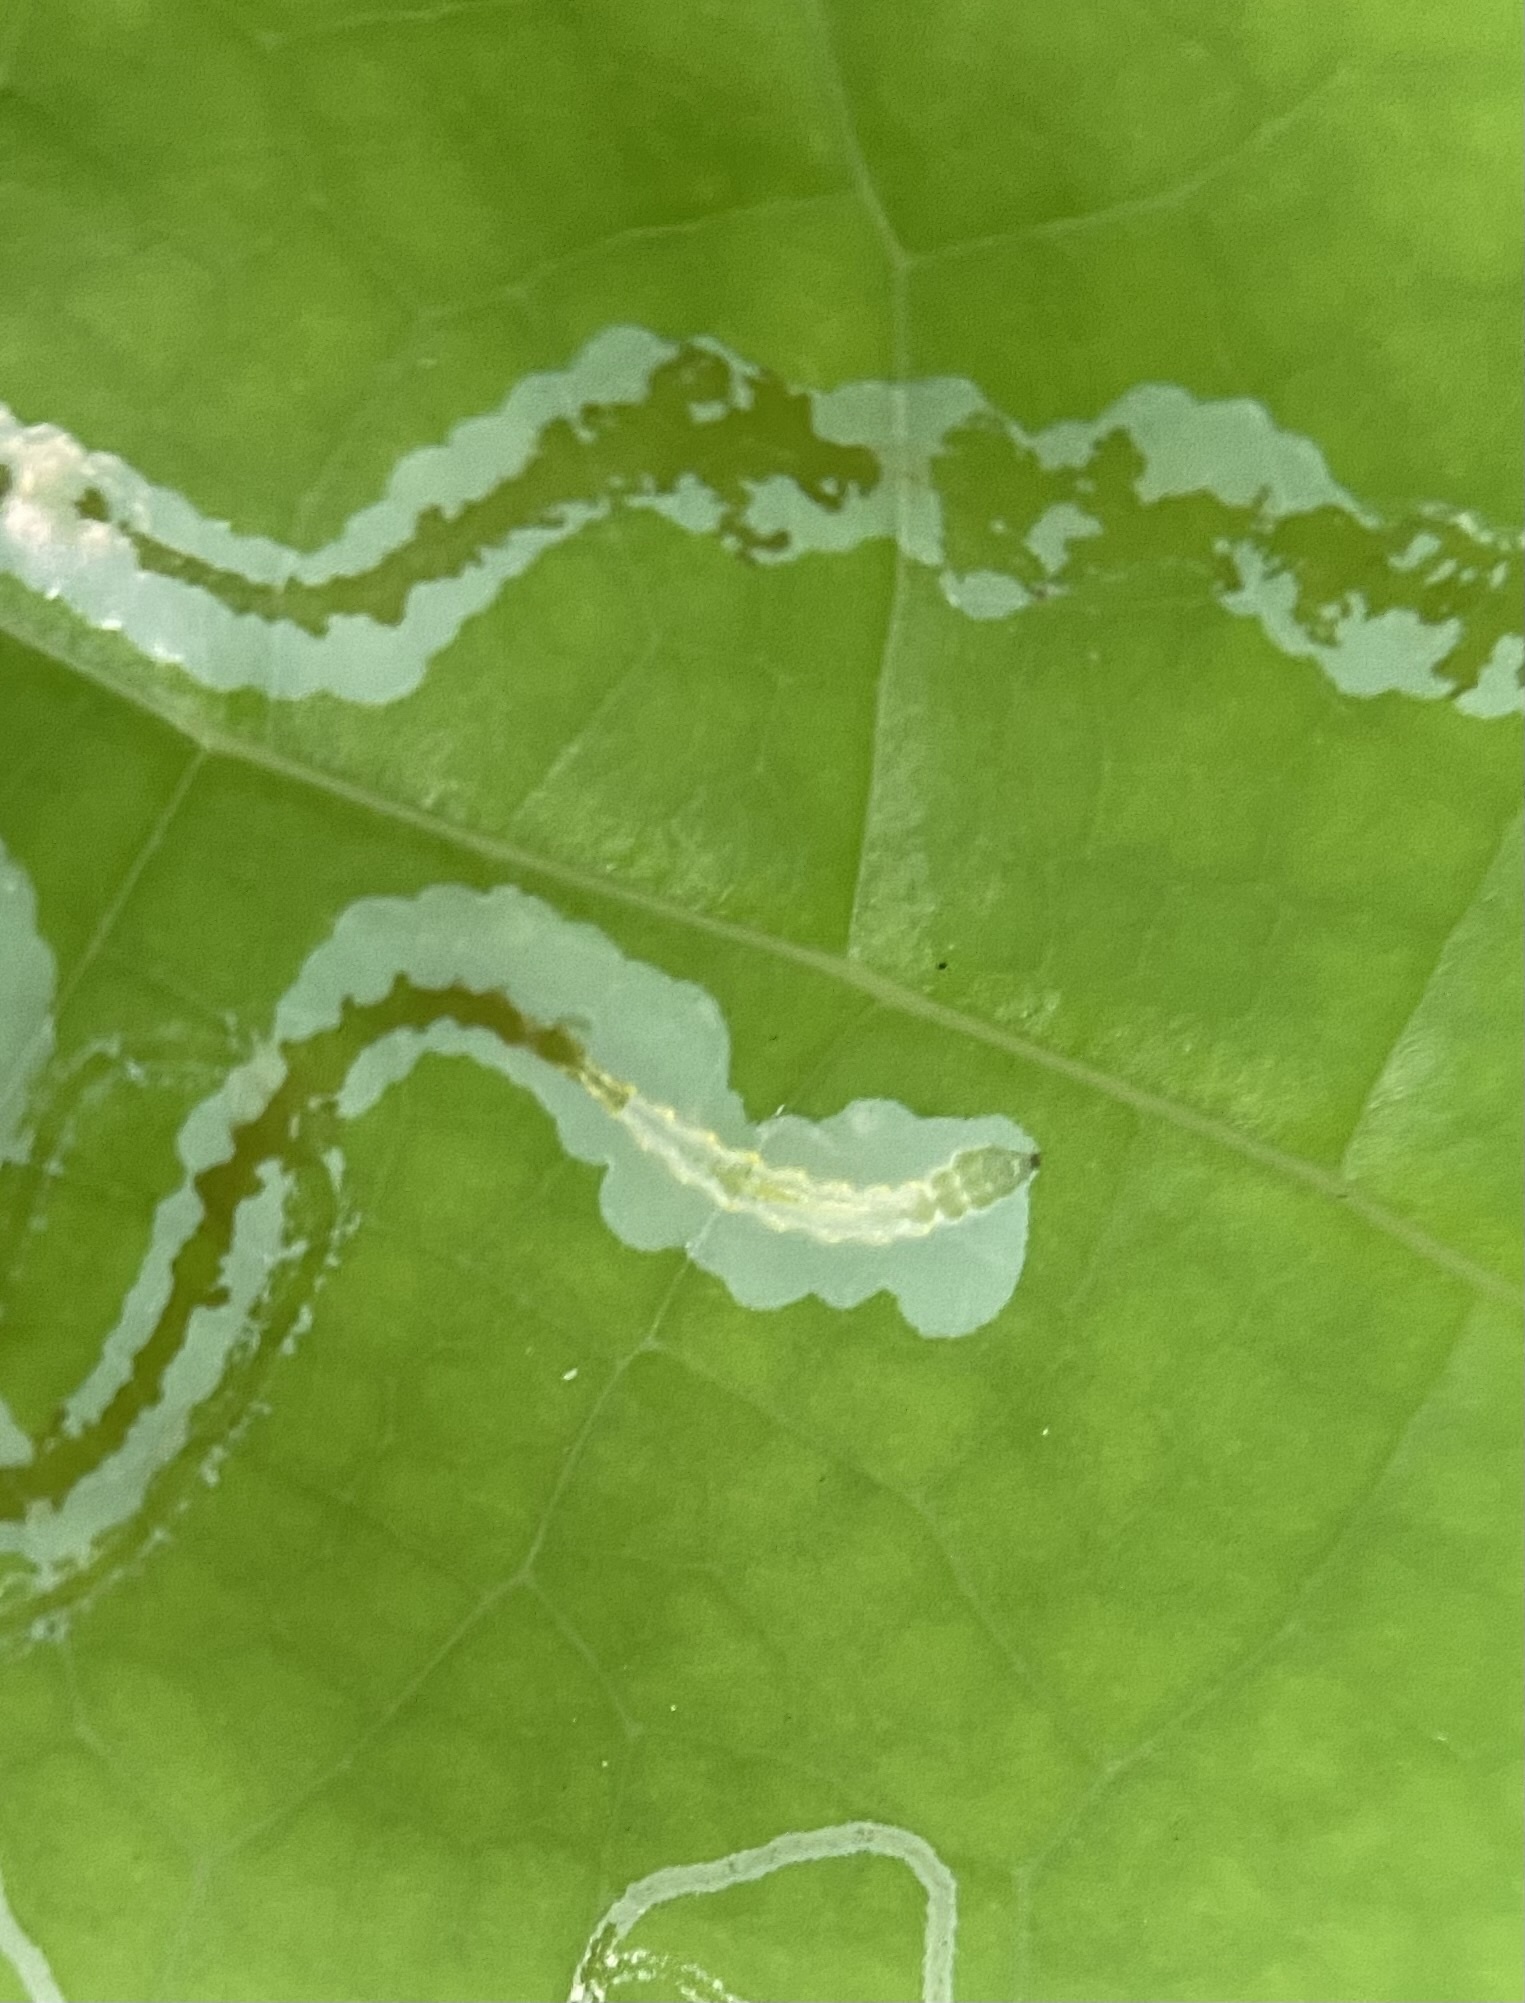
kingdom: Animalia
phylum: Arthropoda
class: Insecta
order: Lepidoptera
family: Gracillariidae
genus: Phyllocnistis
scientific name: Phyllocnistis liriodendronella
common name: Tulip tree leaf miner
